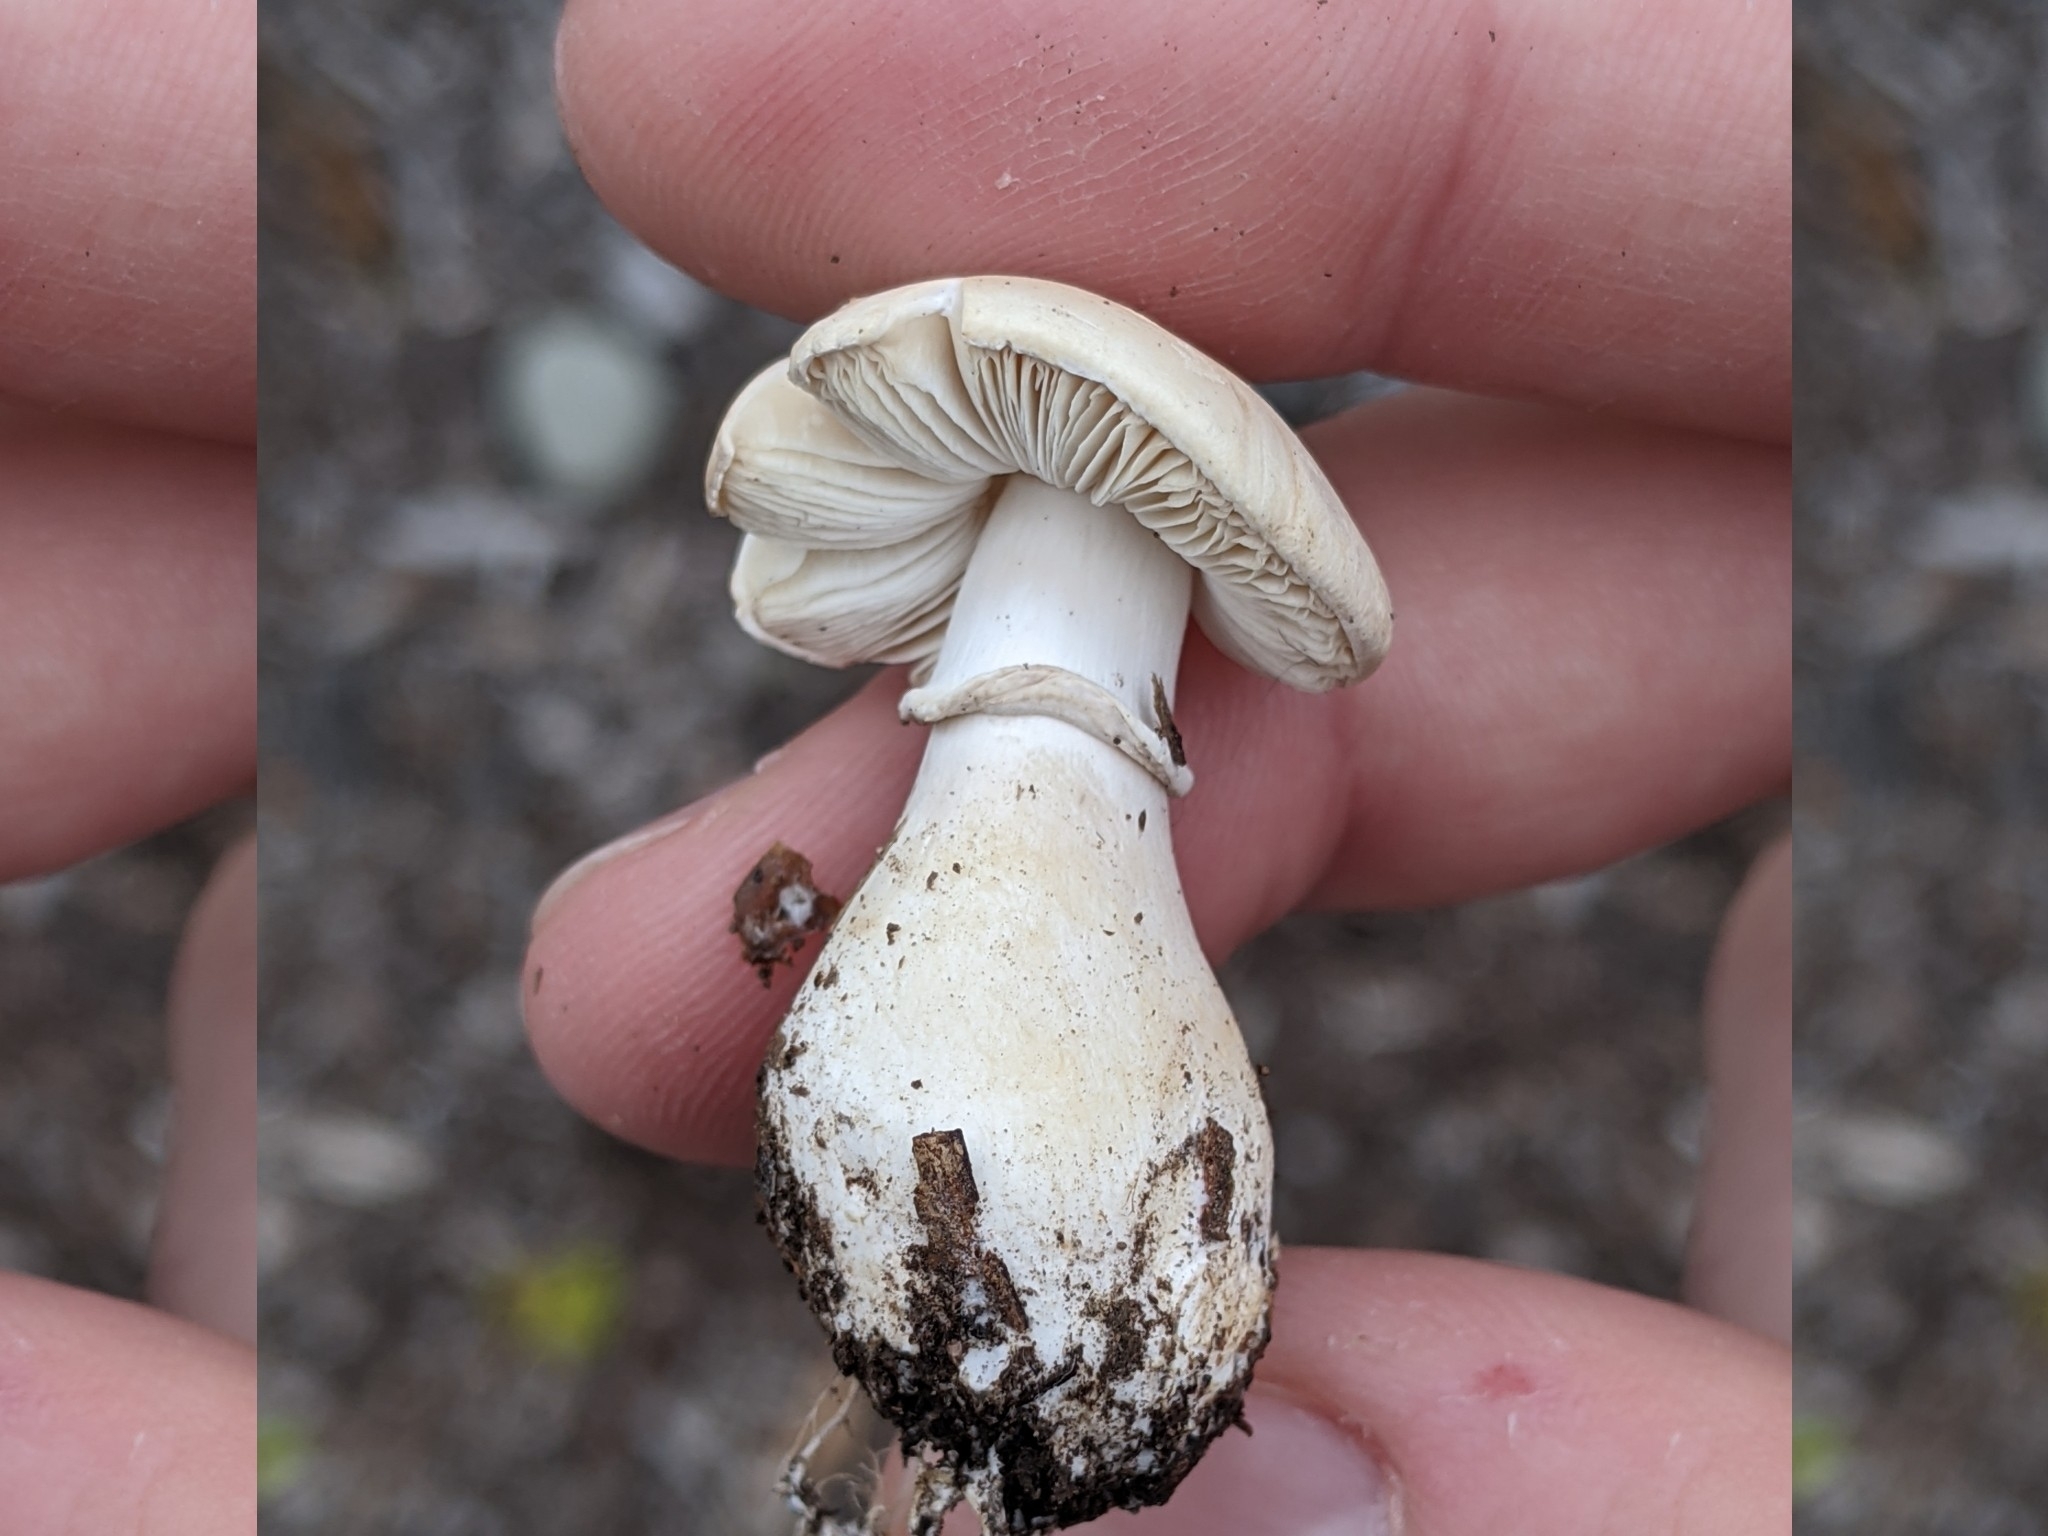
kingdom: Fungi
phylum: Basidiomycota
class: Agaricomycetes
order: Agaricales
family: Agaricaceae
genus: Leucoagaricus
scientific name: Leucoagaricus leucothites
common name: White dapperling
